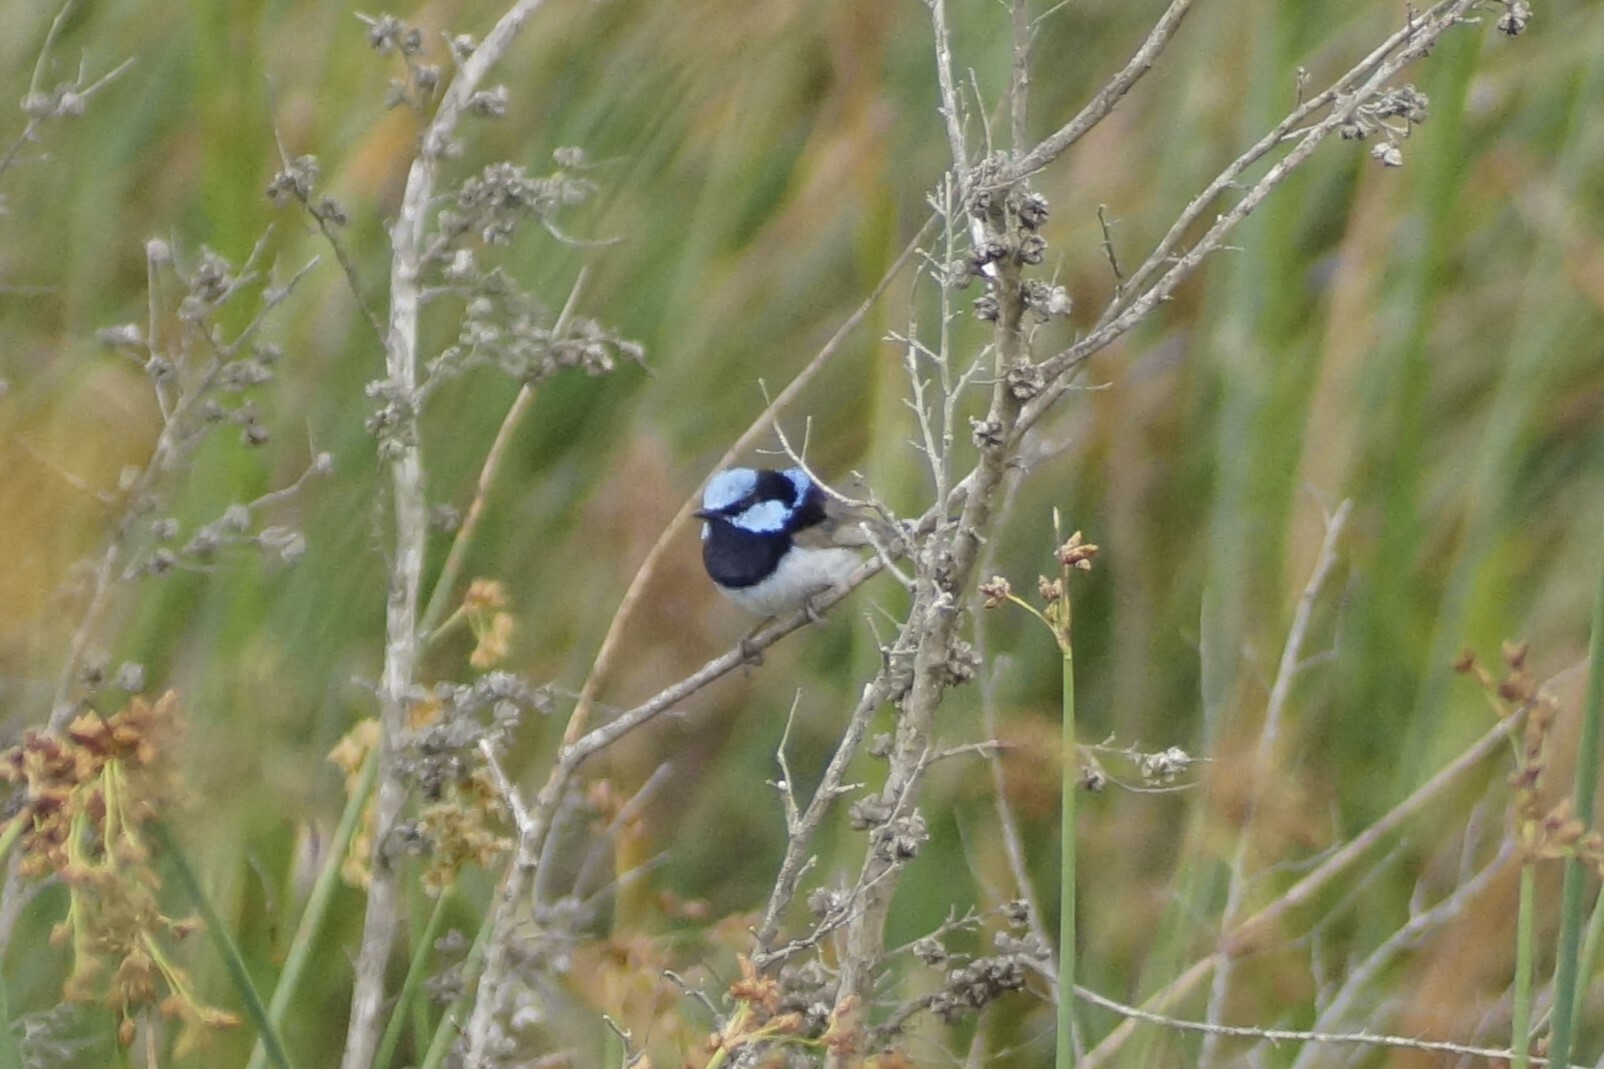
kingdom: Animalia
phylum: Chordata
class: Aves
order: Passeriformes
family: Maluridae
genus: Malurus
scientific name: Malurus cyaneus
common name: Superb fairywren
